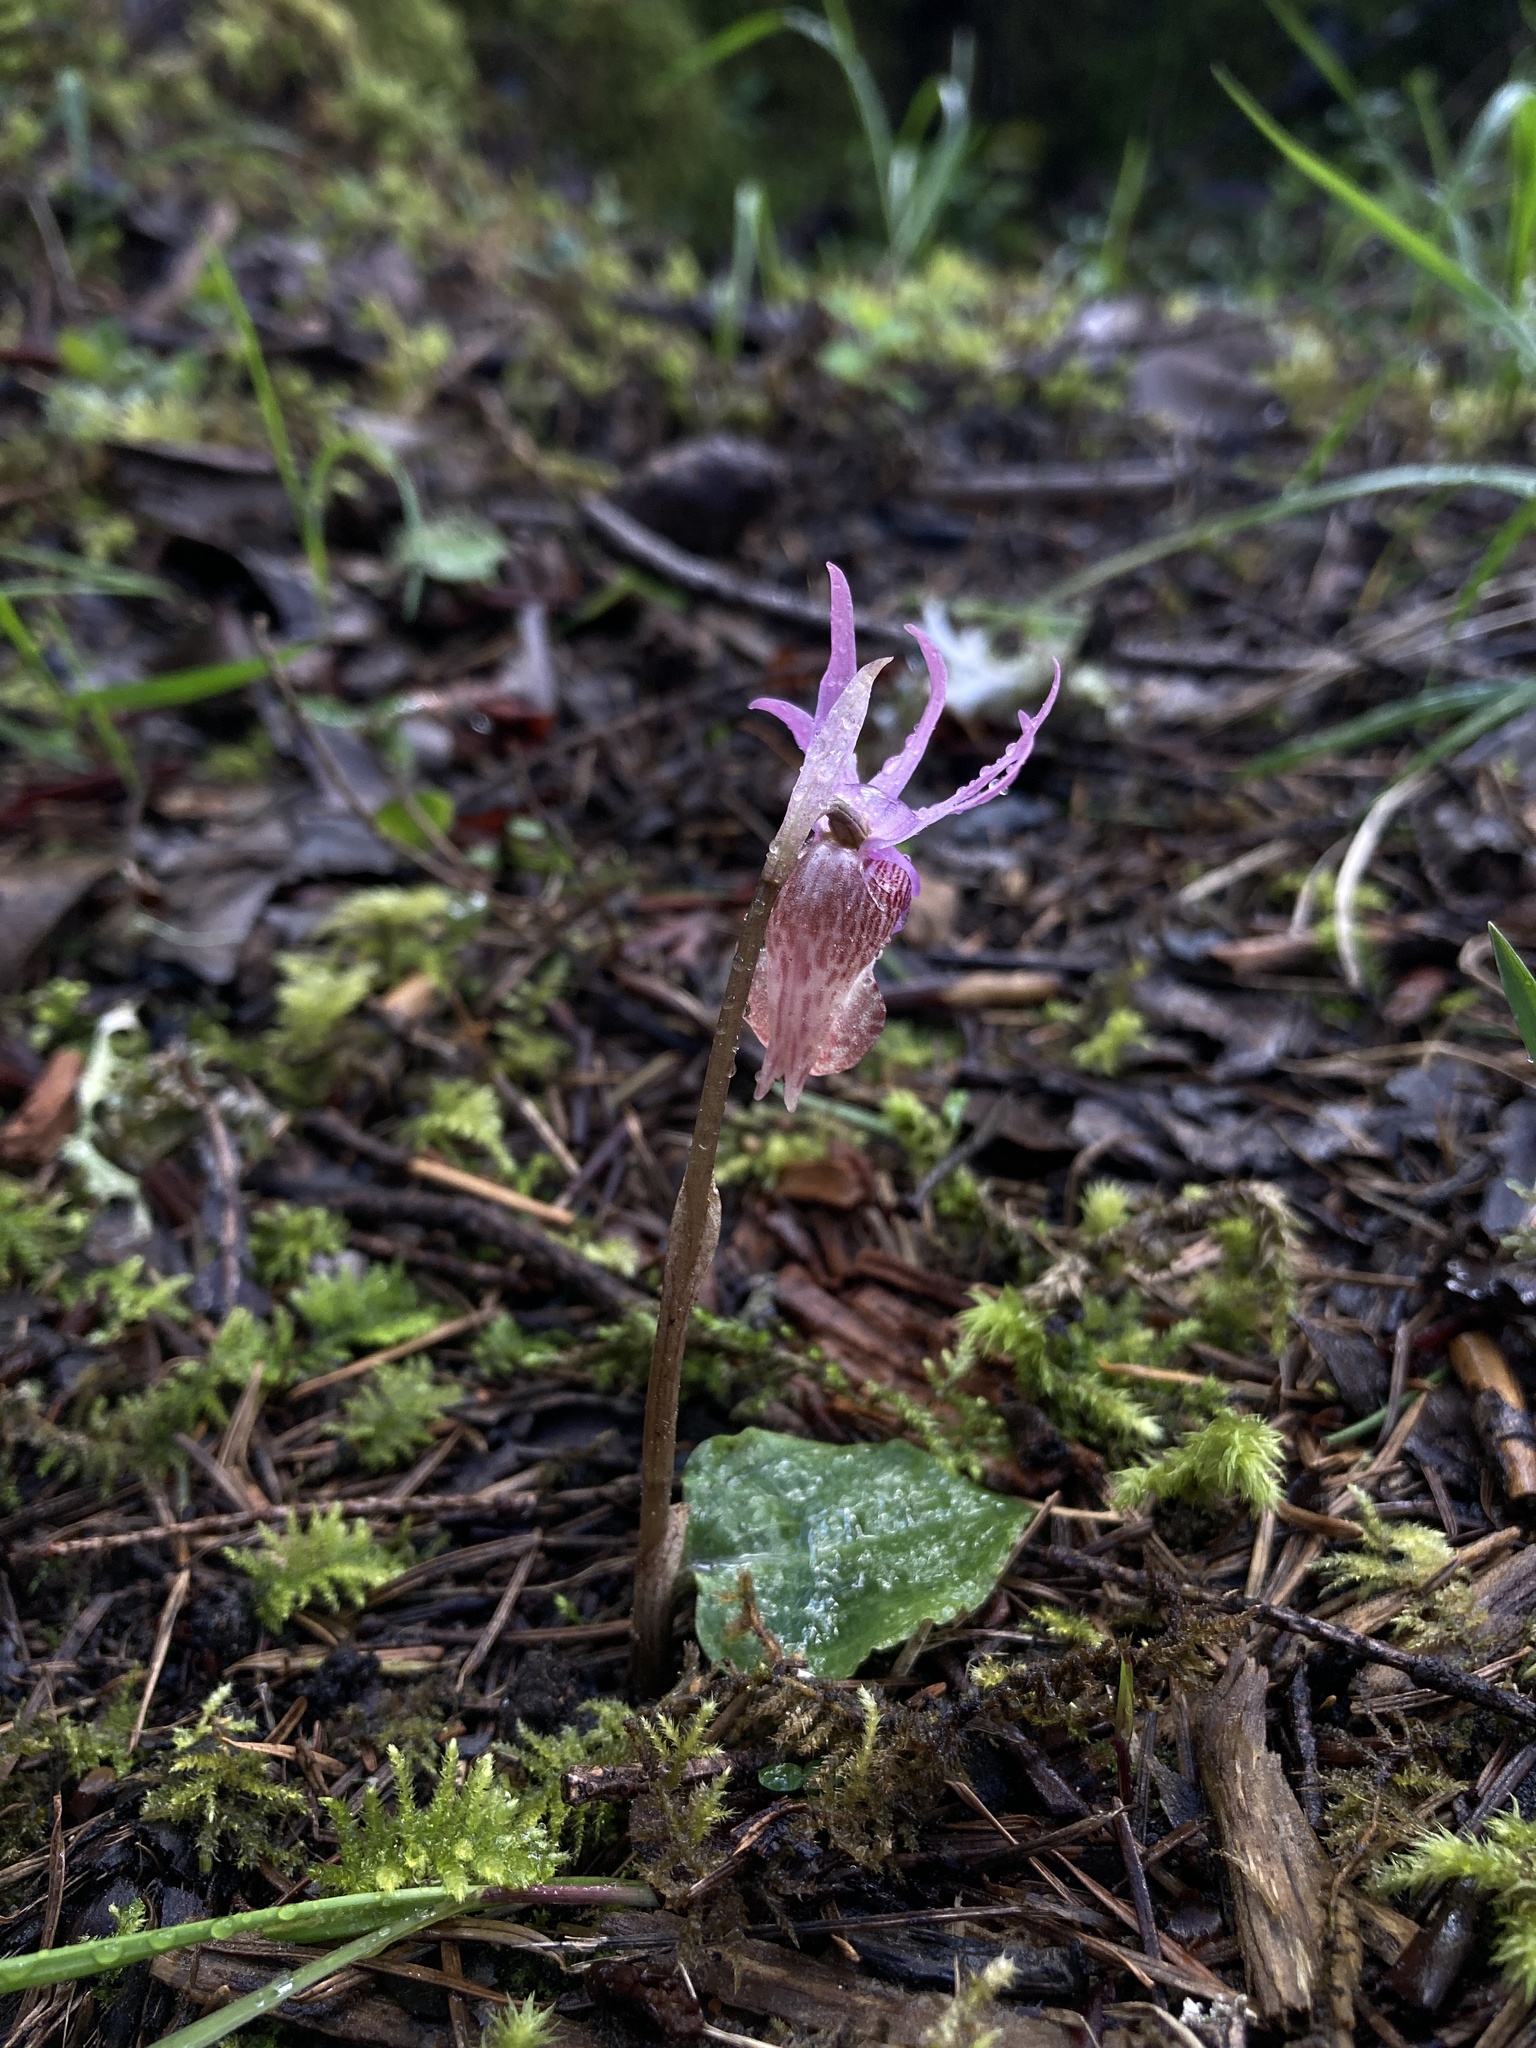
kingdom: Plantae
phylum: Tracheophyta
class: Liliopsida
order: Asparagales
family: Orchidaceae
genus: Calypso
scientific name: Calypso bulbosa
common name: Calypso
